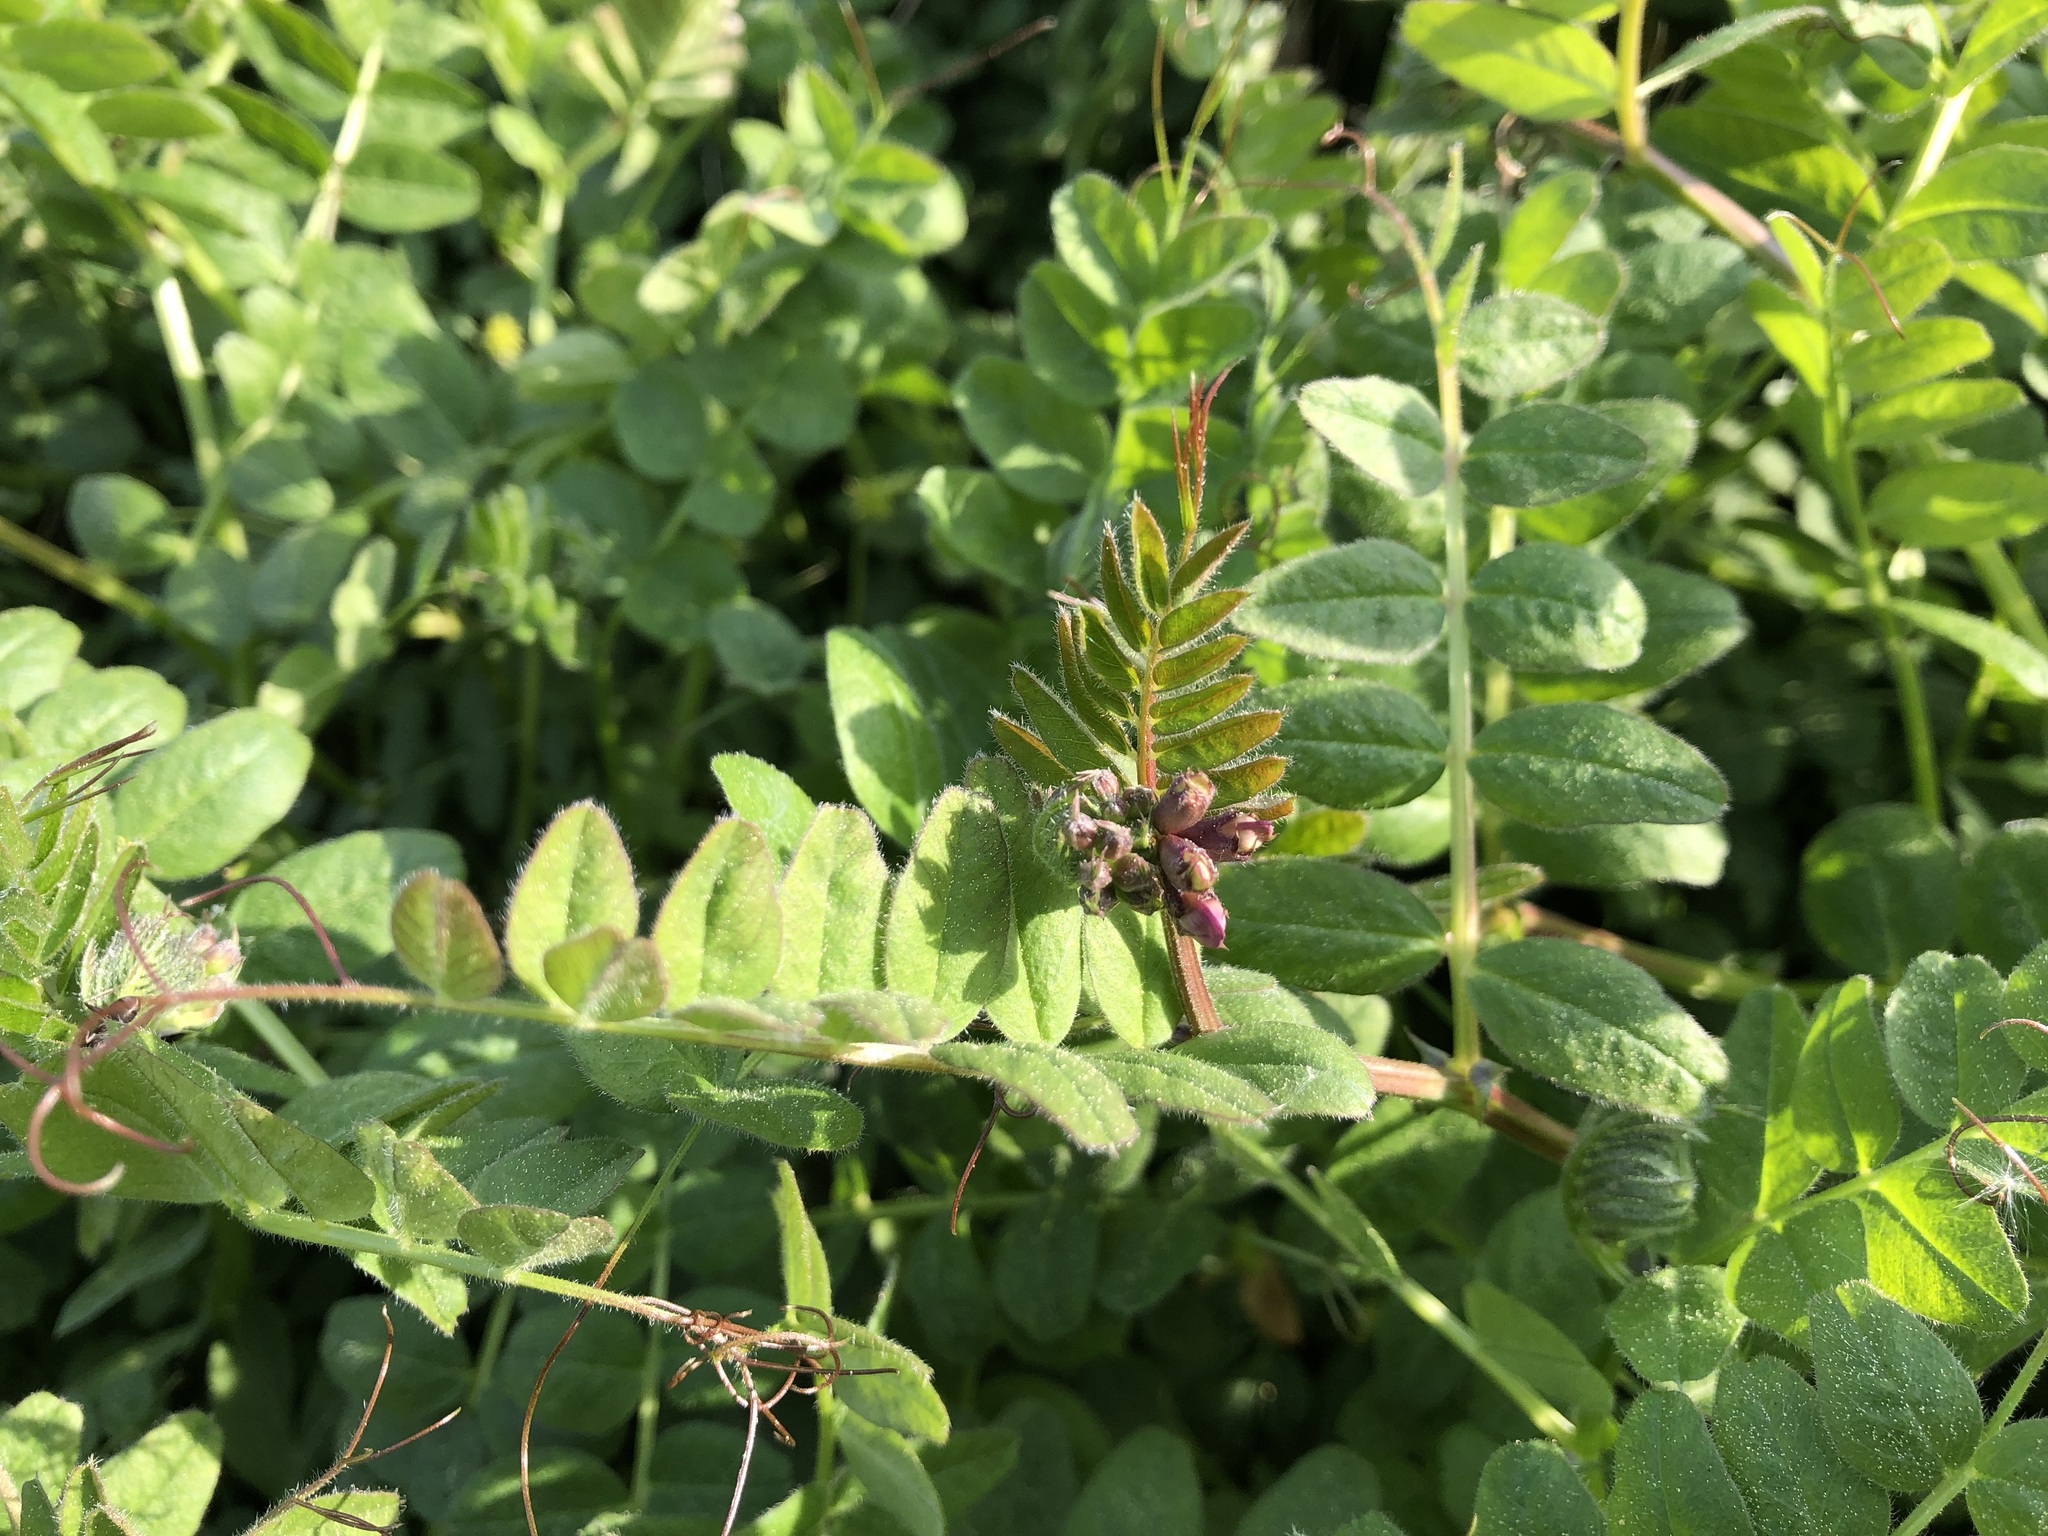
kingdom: Plantae
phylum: Tracheophyta
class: Magnoliopsida
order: Fabales
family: Fabaceae
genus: Vicia
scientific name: Vicia sepium
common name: Bush vetch
